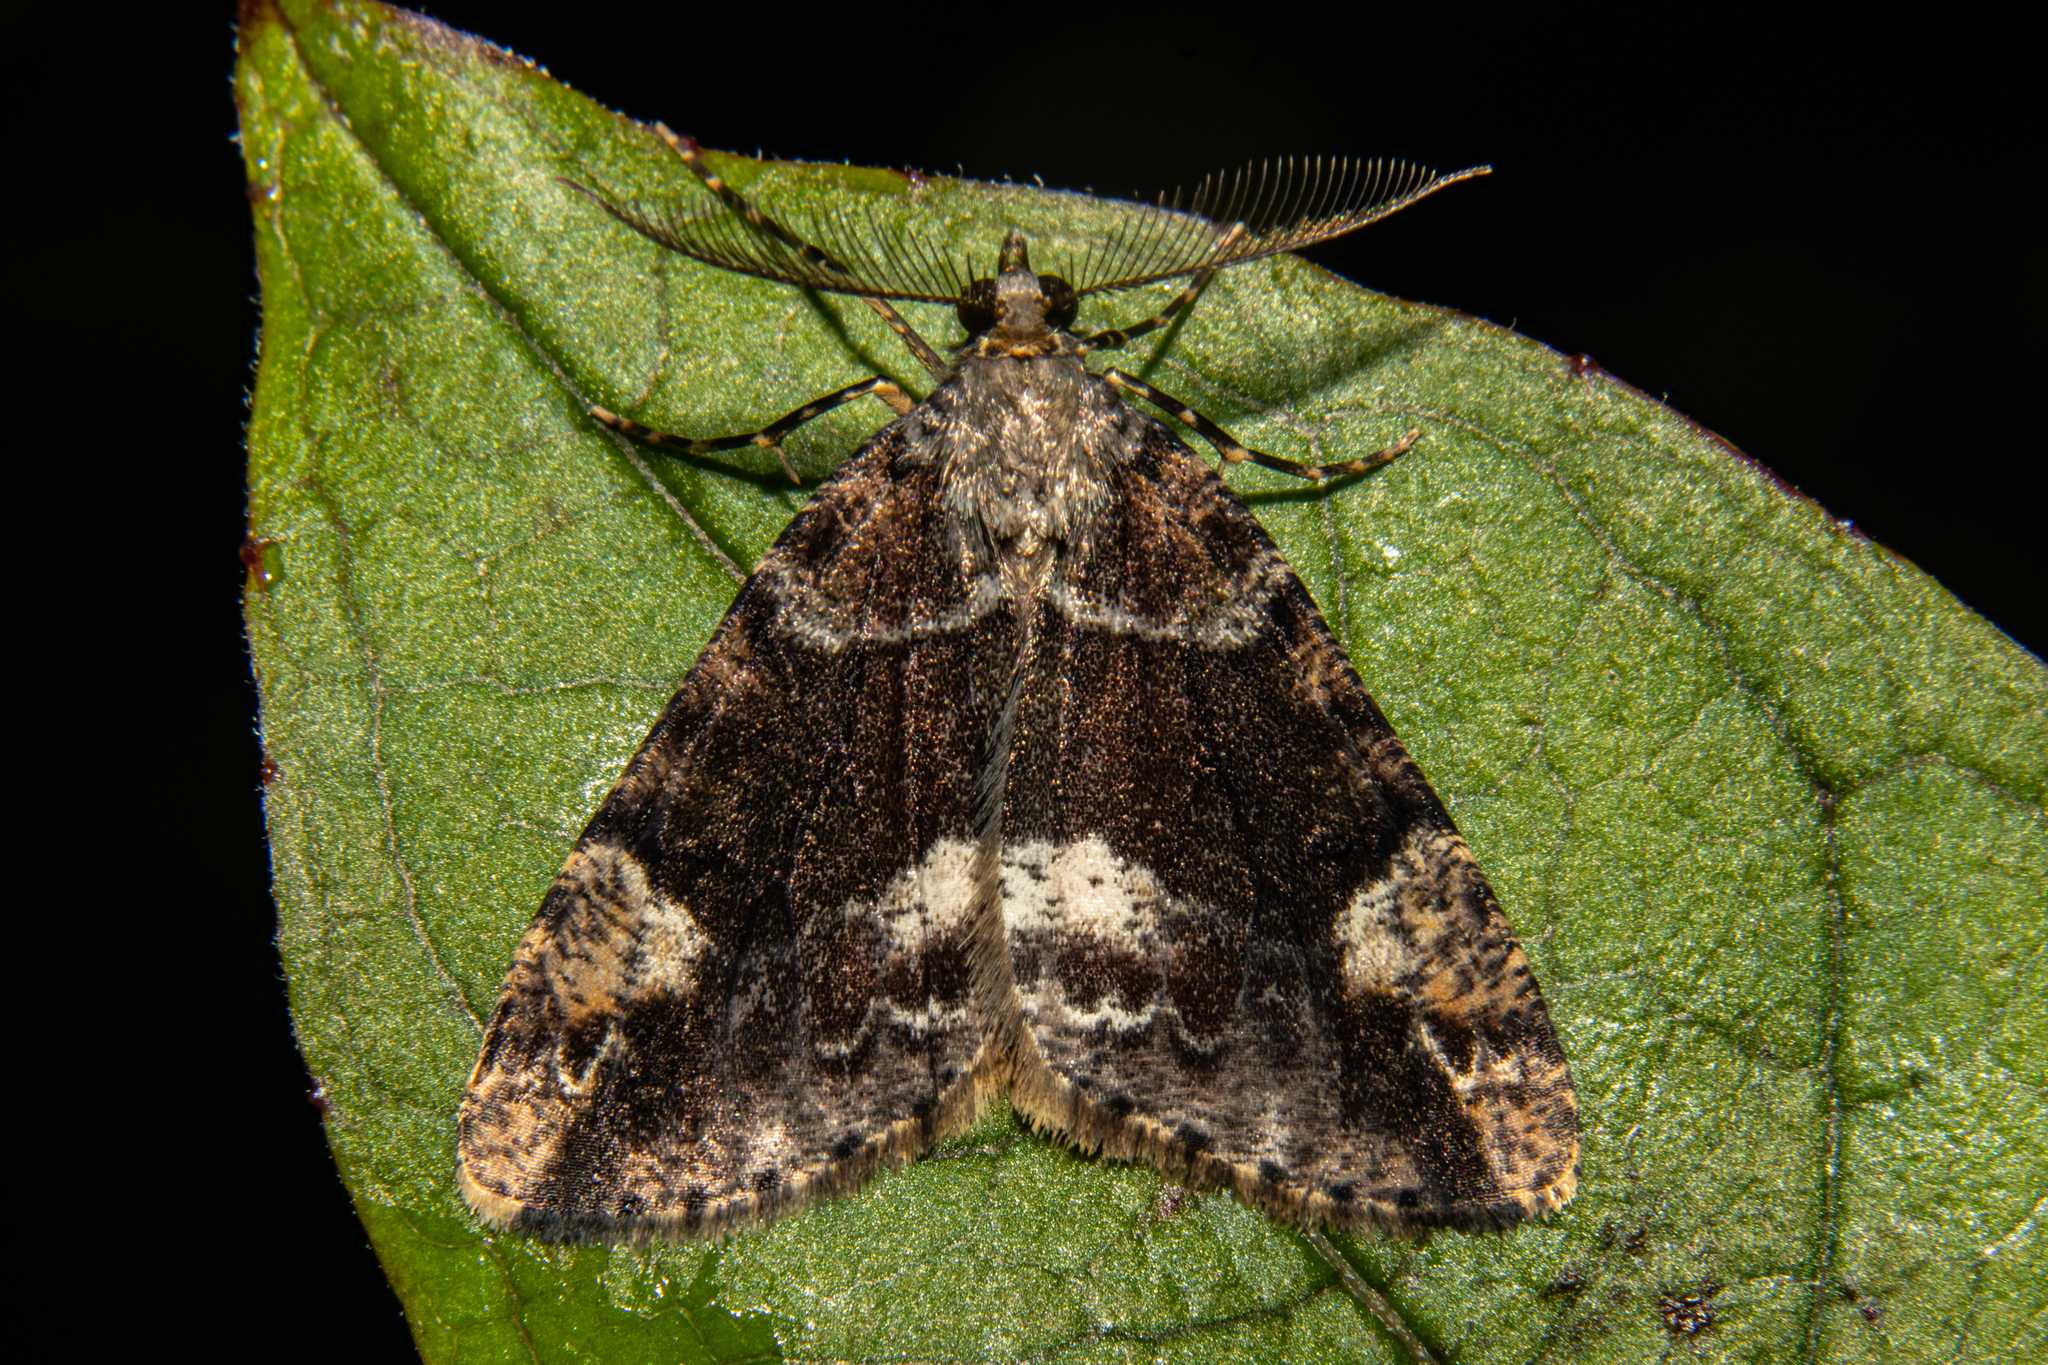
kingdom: Animalia
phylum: Arthropoda
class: Insecta
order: Lepidoptera
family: Geometridae
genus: Pseudocoremia
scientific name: Pseudocoremia productata
